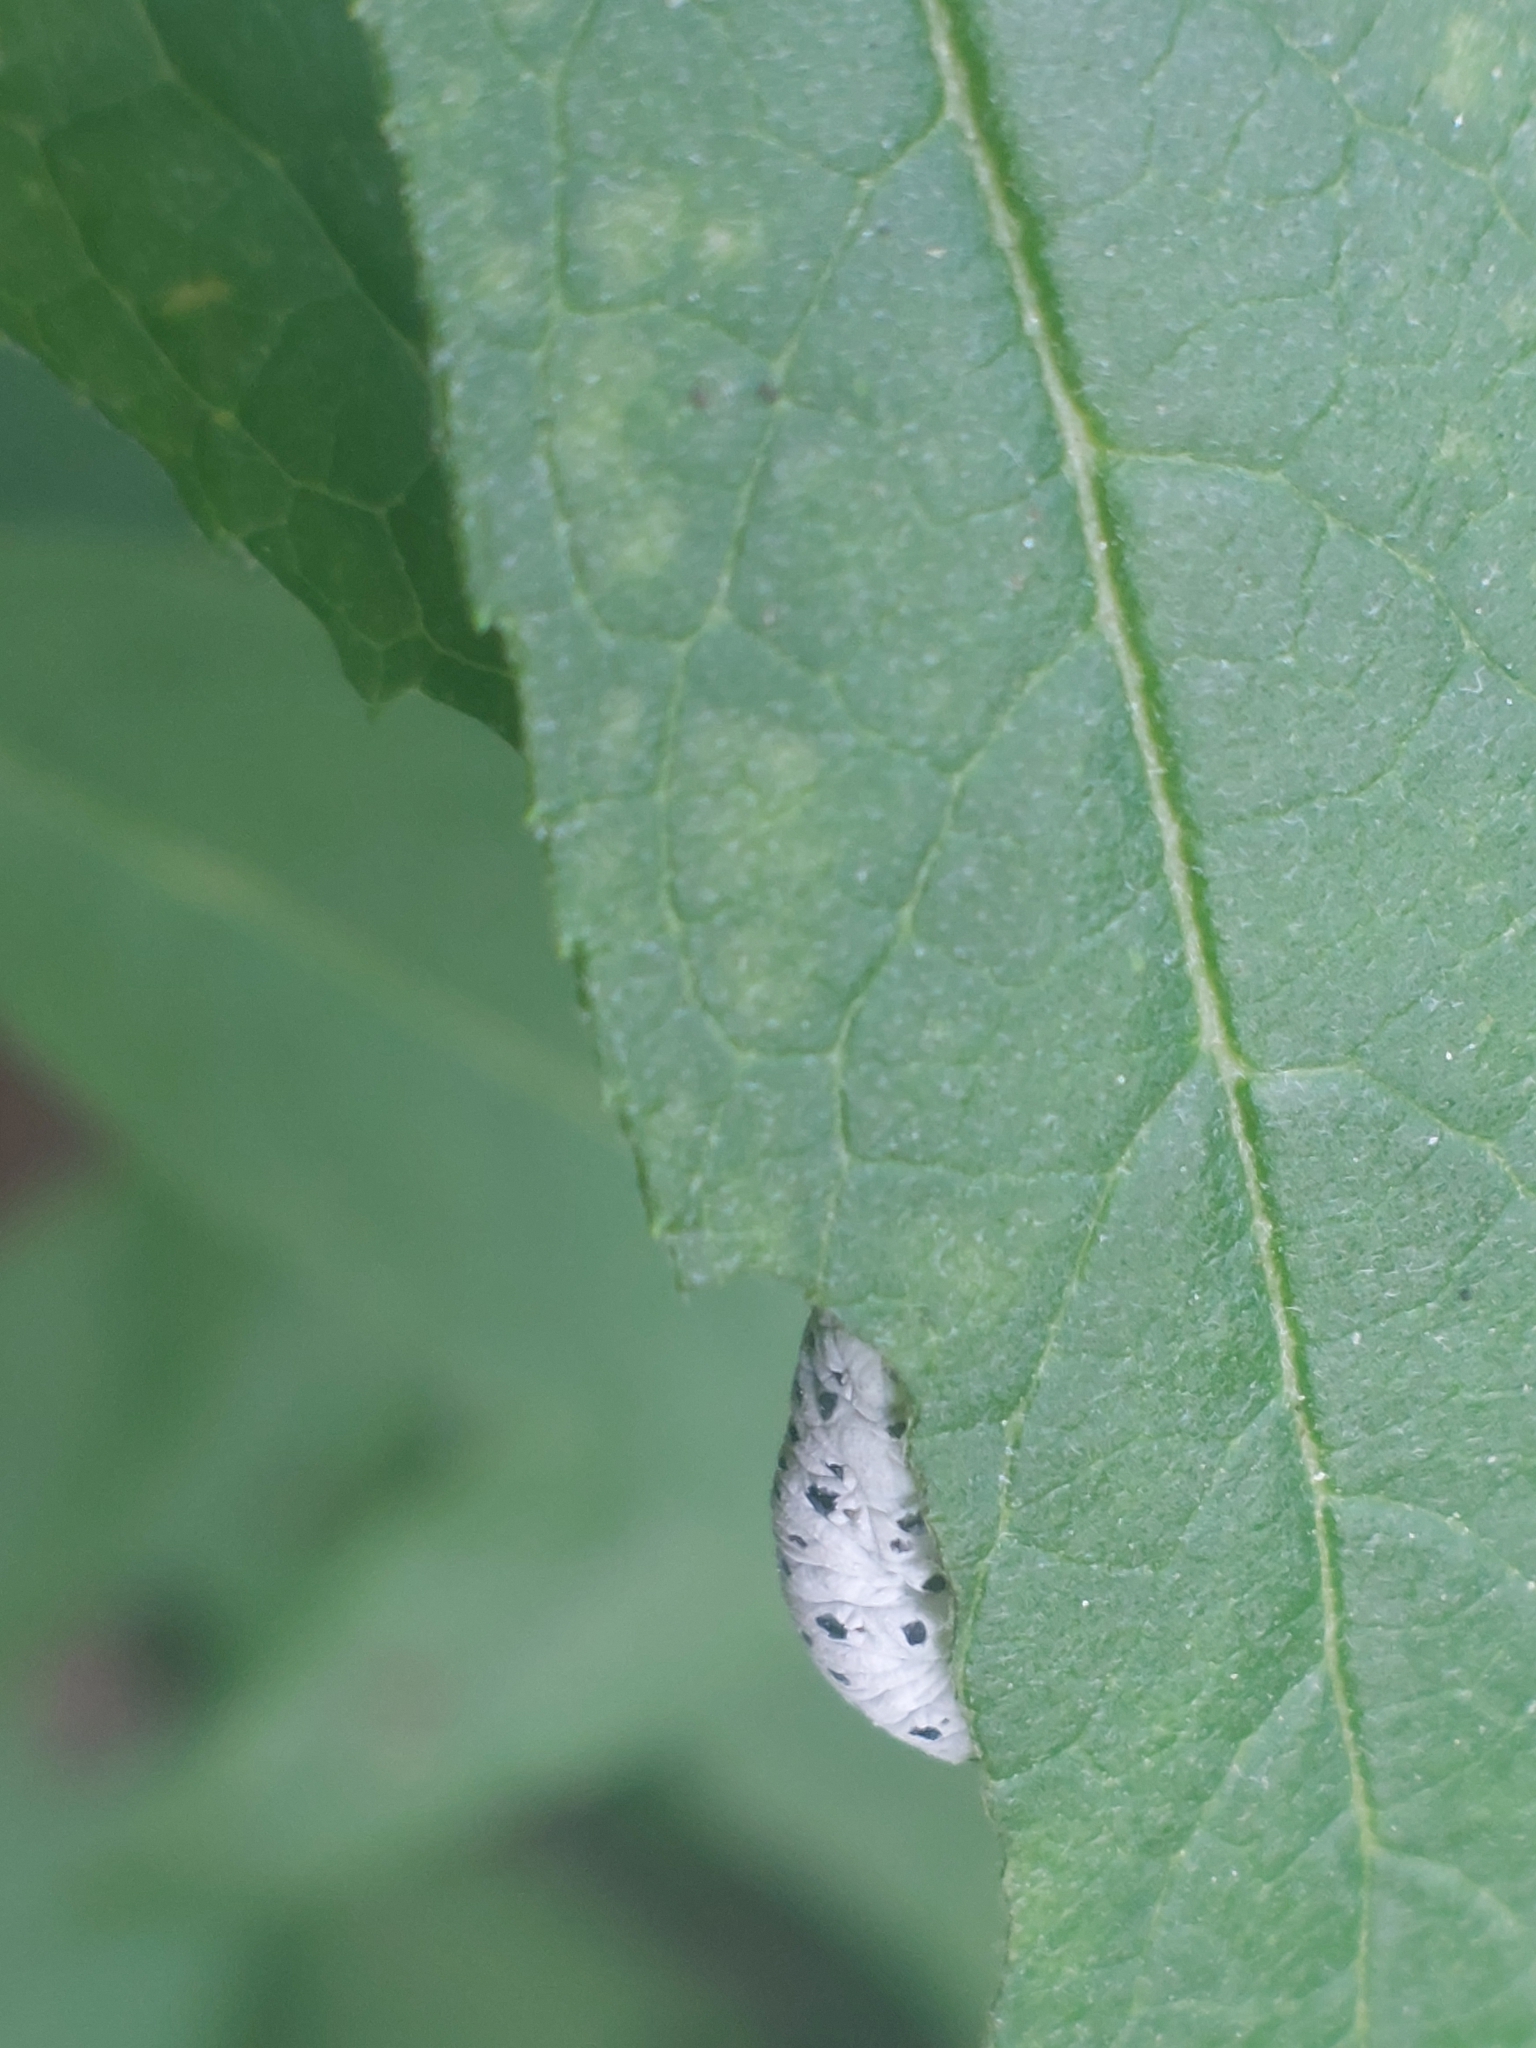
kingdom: Animalia
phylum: Arthropoda
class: Insecta
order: Hymenoptera
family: Tenthredinidae
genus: Tenthredo
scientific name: Tenthredo scrophulariae
